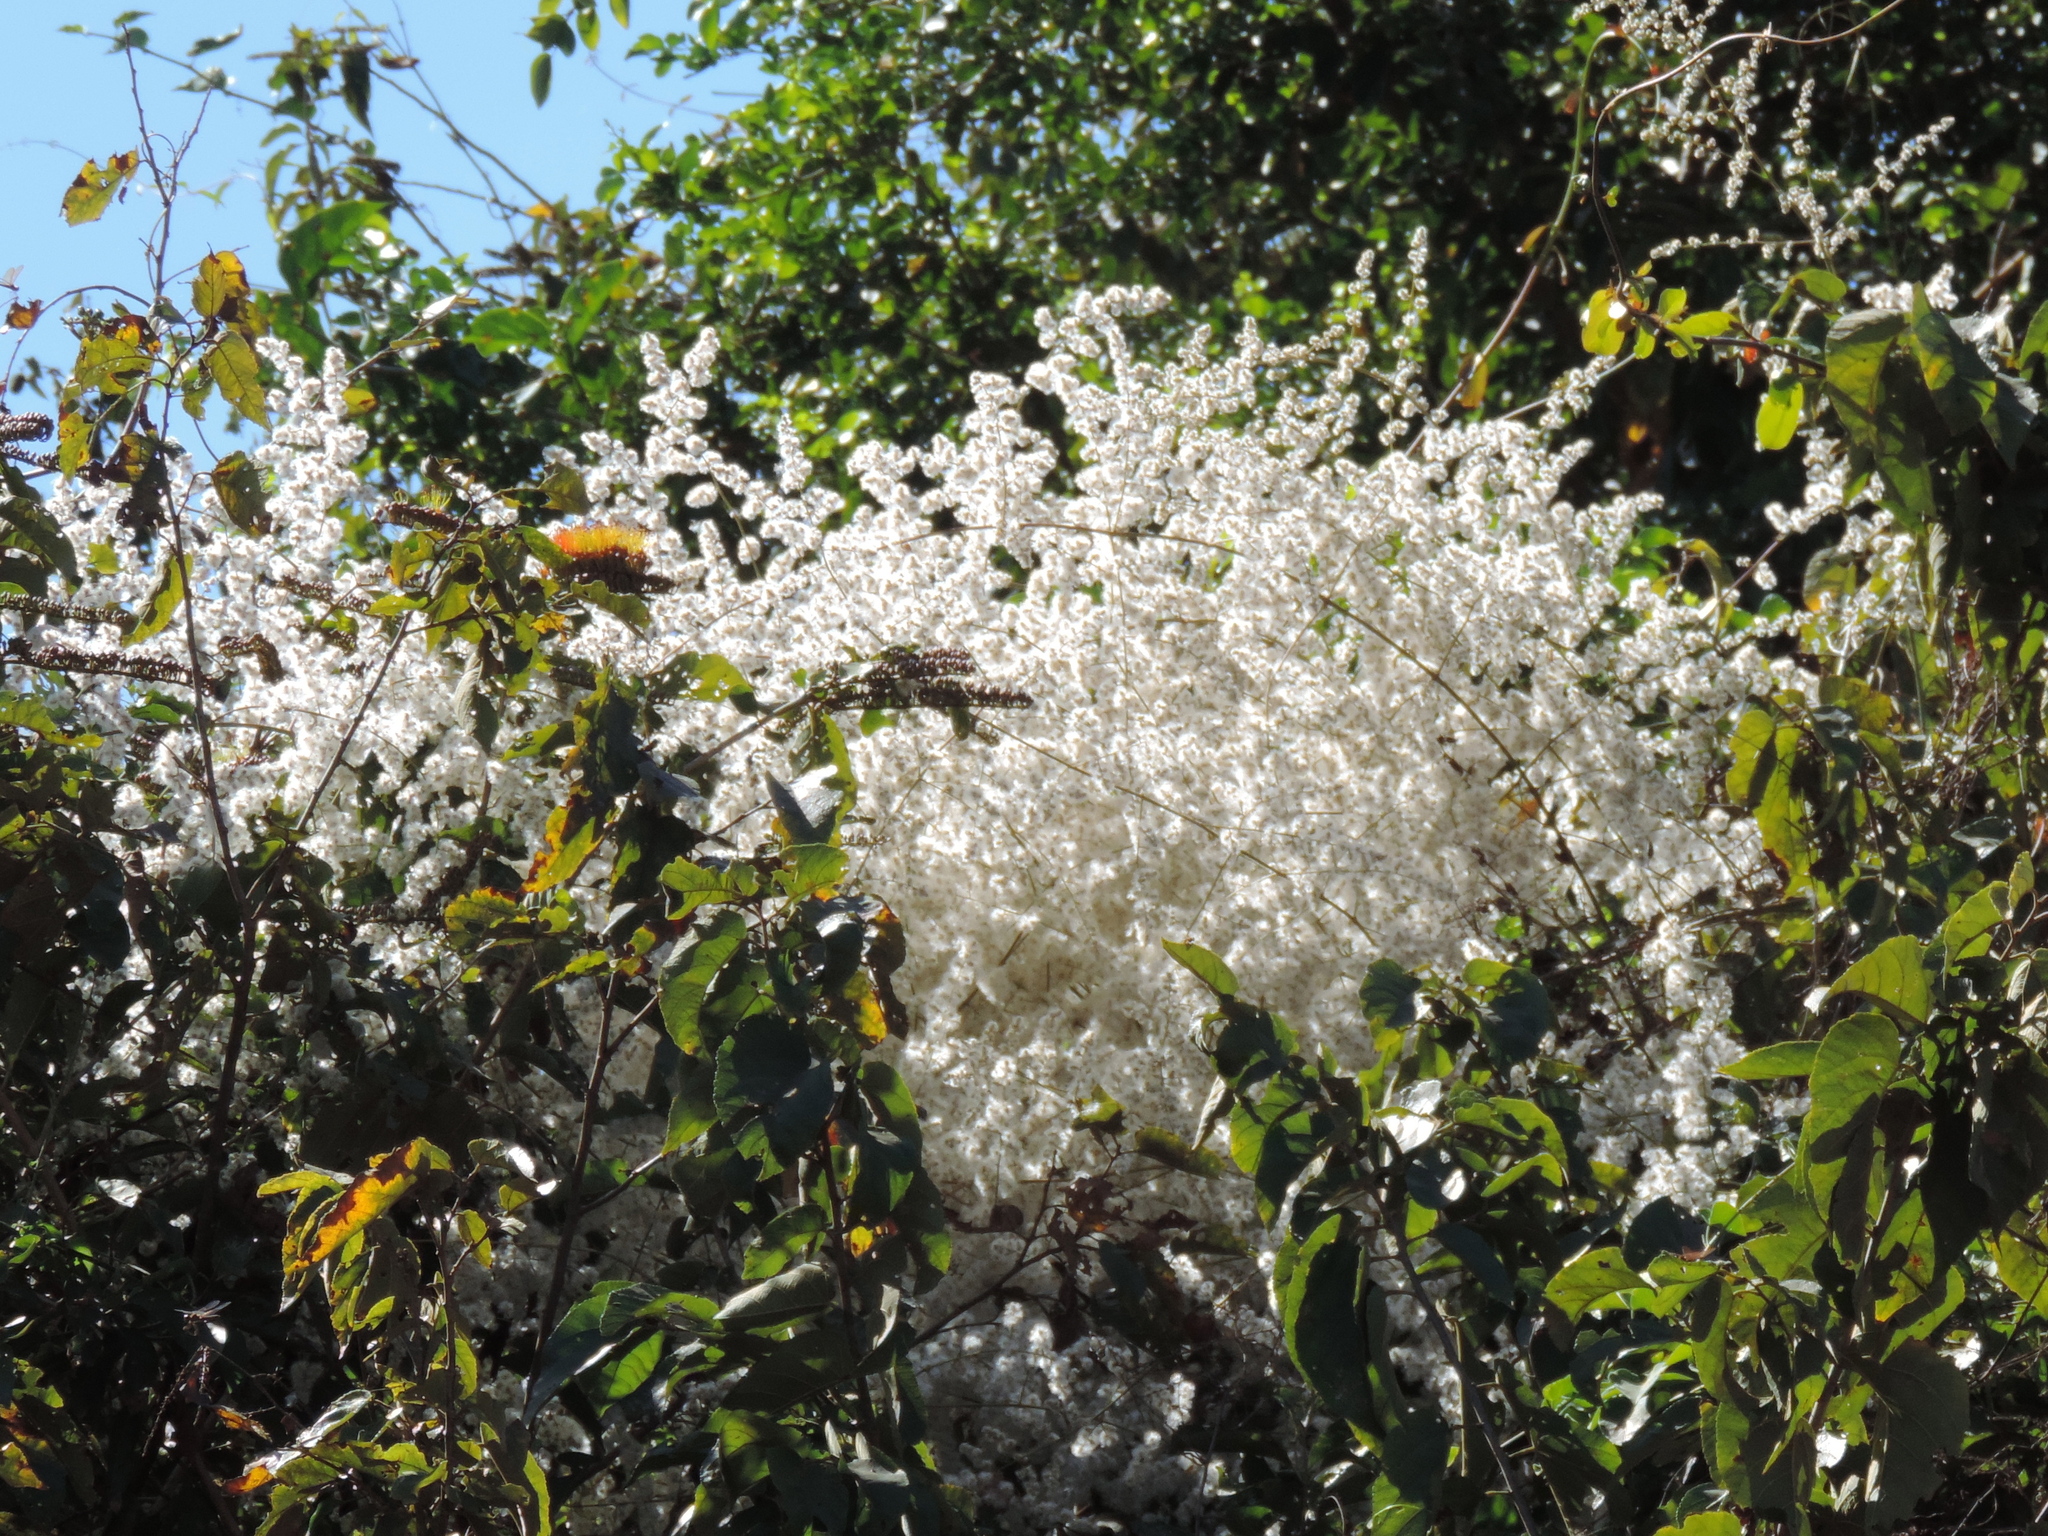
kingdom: Plantae
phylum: Tracheophyta
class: Magnoliopsida
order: Caryophyllales
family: Amaranthaceae
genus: Iresine
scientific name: Iresine diffusa
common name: Juba's-bush
